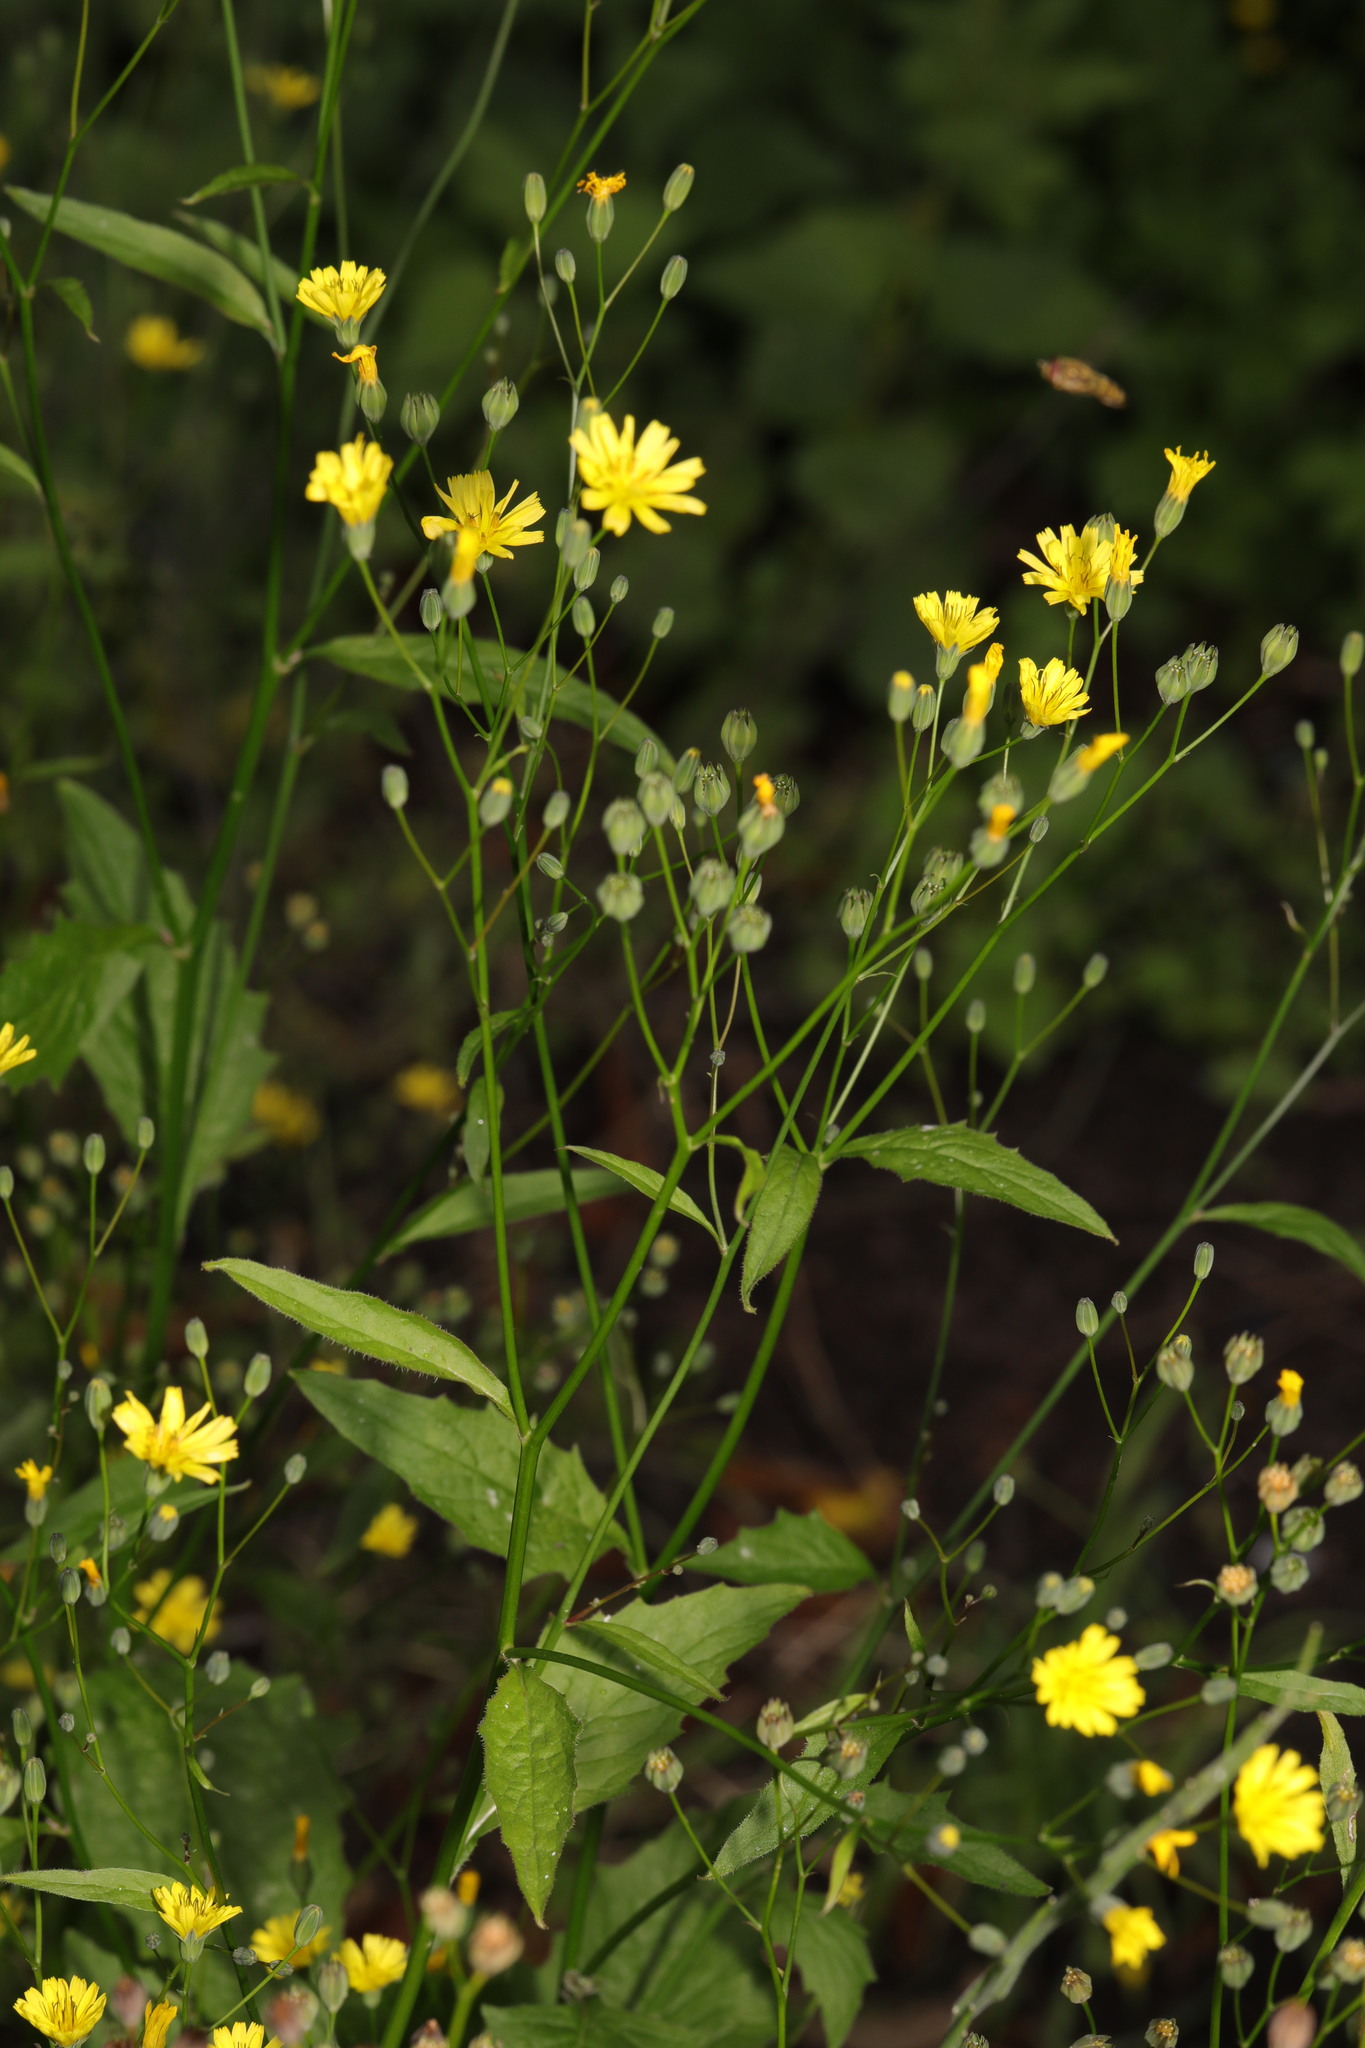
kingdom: Plantae
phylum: Tracheophyta
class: Magnoliopsida
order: Asterales
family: Asteraceae
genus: Lapsana
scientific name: Lapsana communis
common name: Nipplewort
